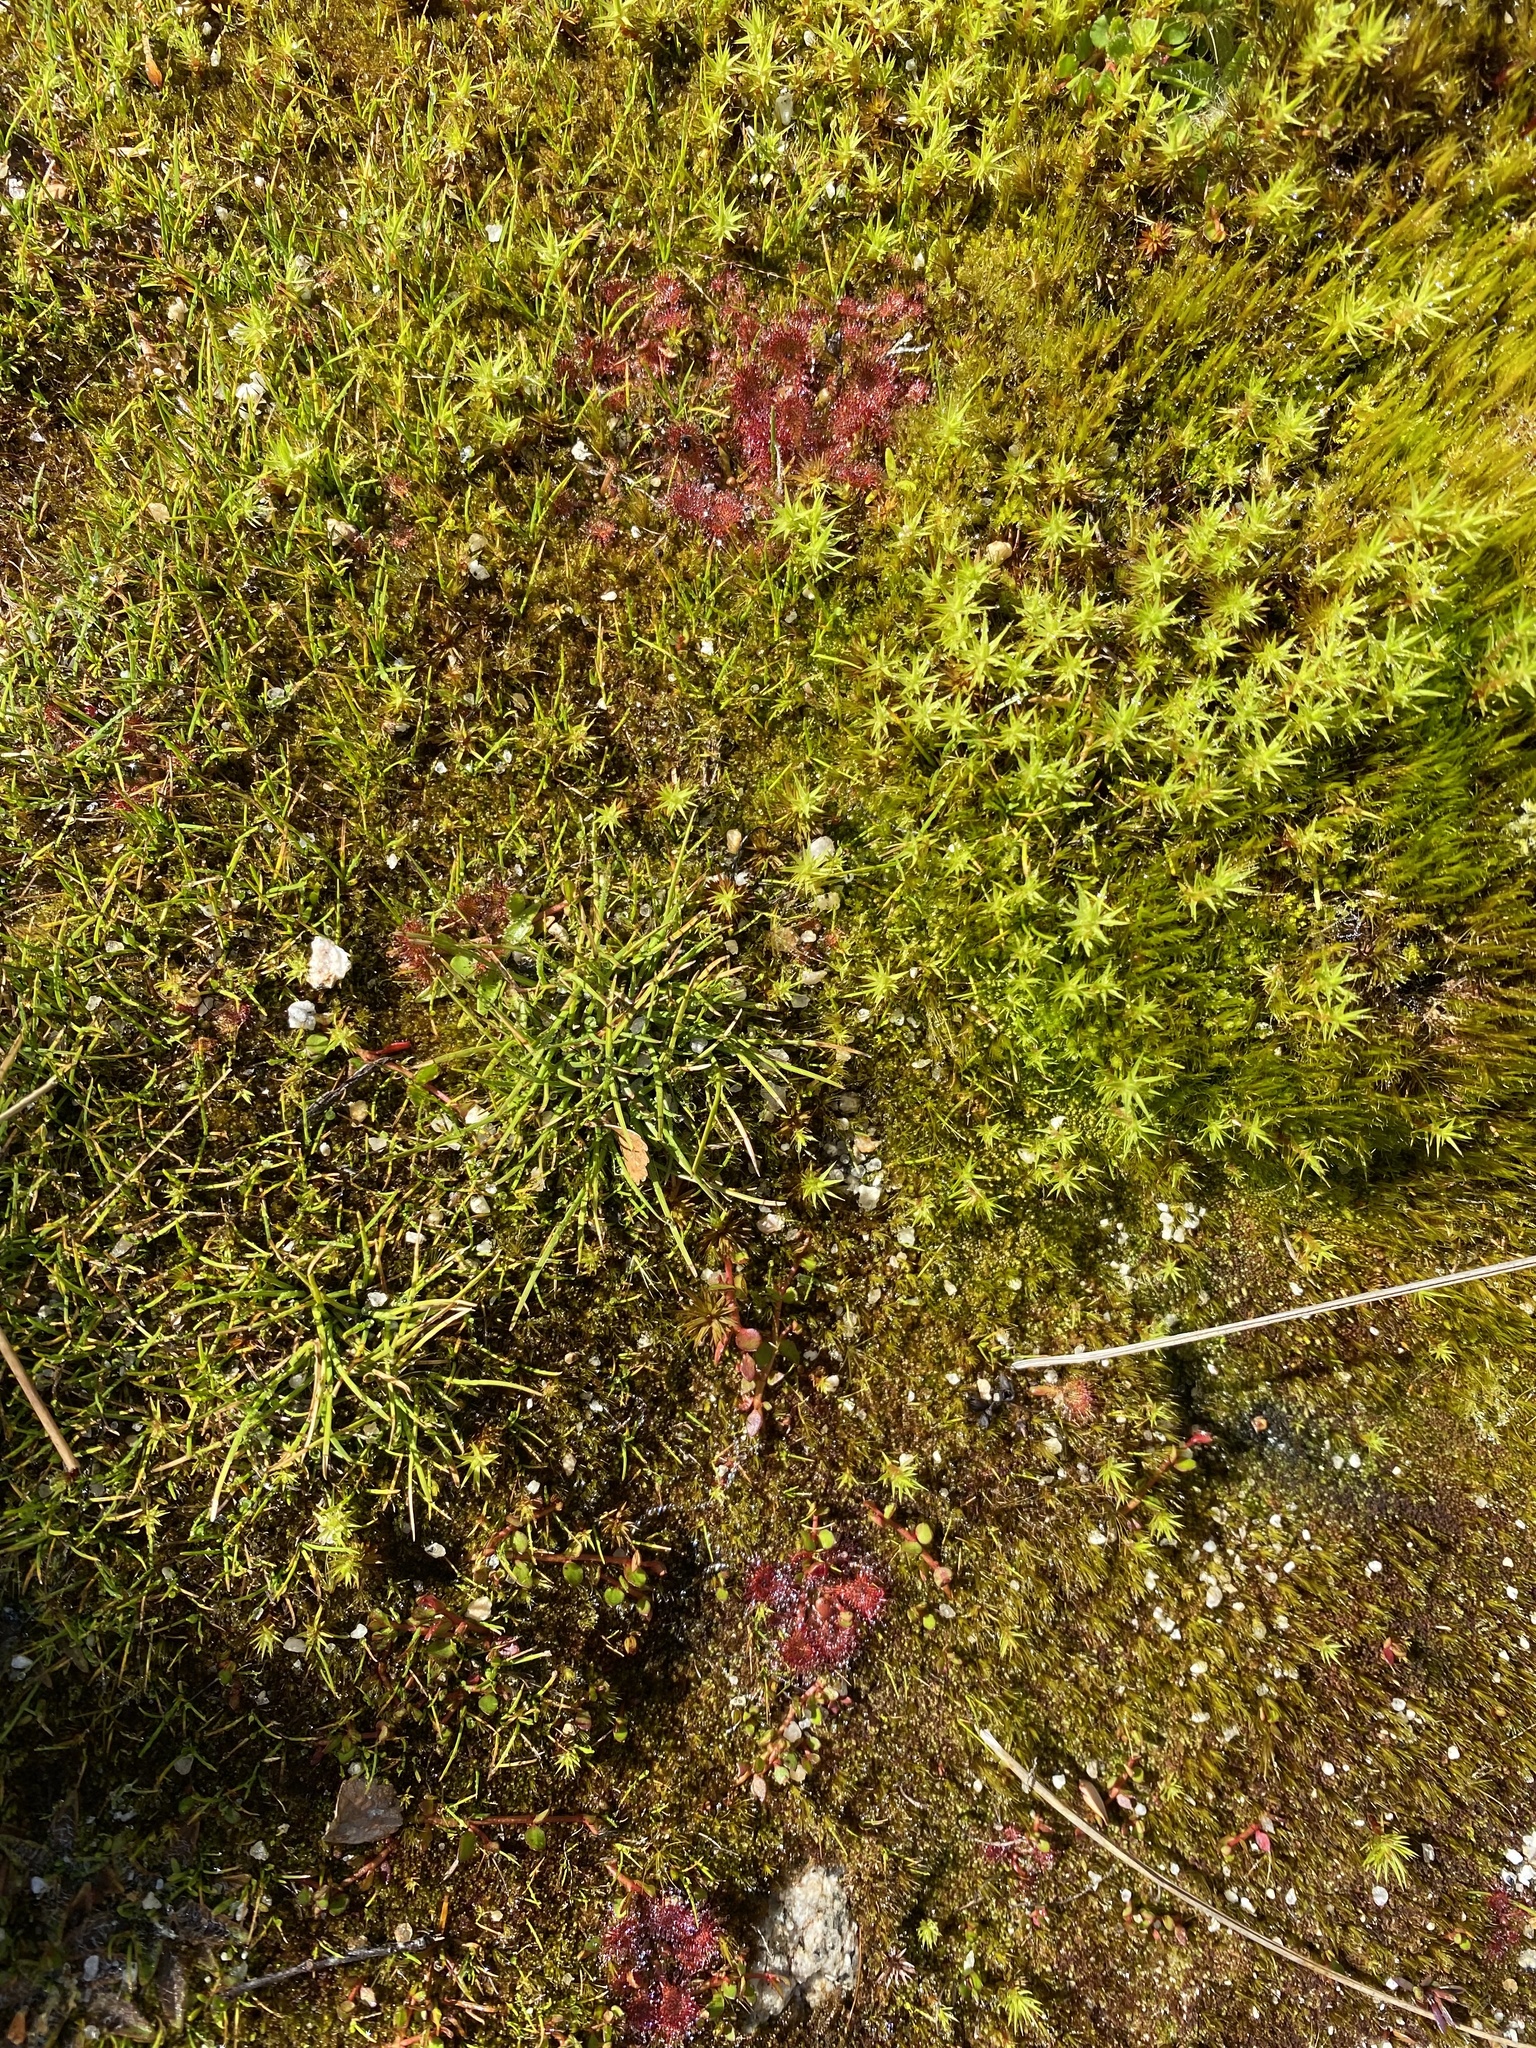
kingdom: Plantae
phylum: Tracheophyta
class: Magnoliopsida
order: Caryophyllales
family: Droseraceae
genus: Drosera
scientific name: Drosera spatulata
